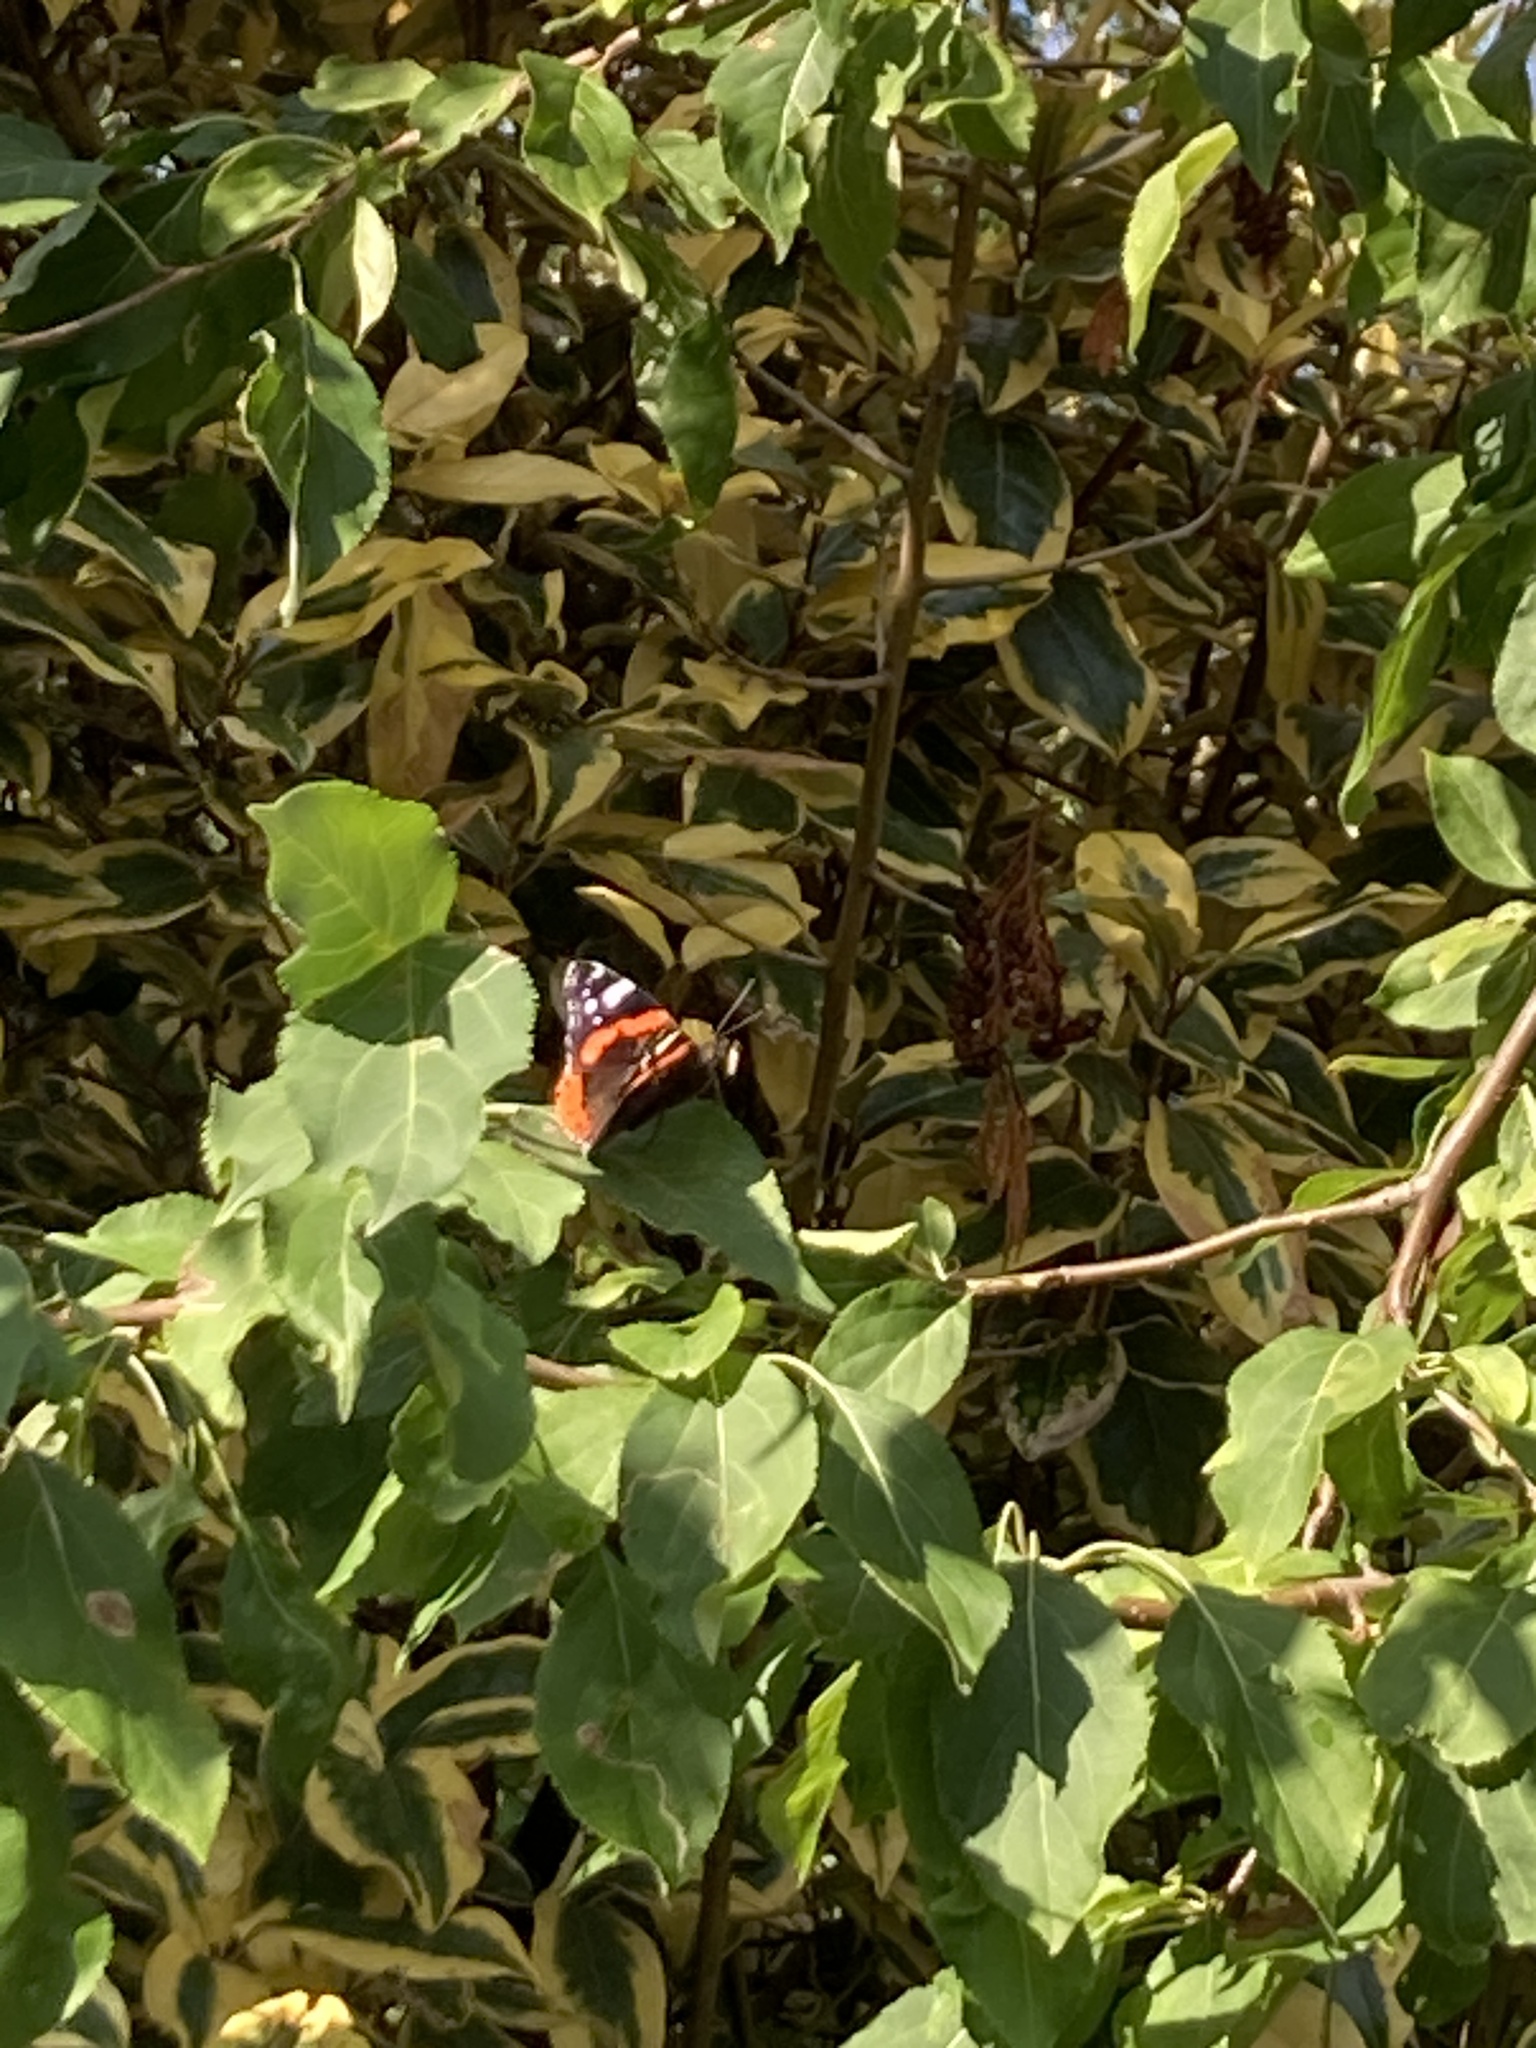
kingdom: Animalia
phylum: Arthropoda
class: Insecta
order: Lepidoptera
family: Nymphalidae
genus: Vanessa
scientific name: Vanessa atalanta
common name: Red admiral
